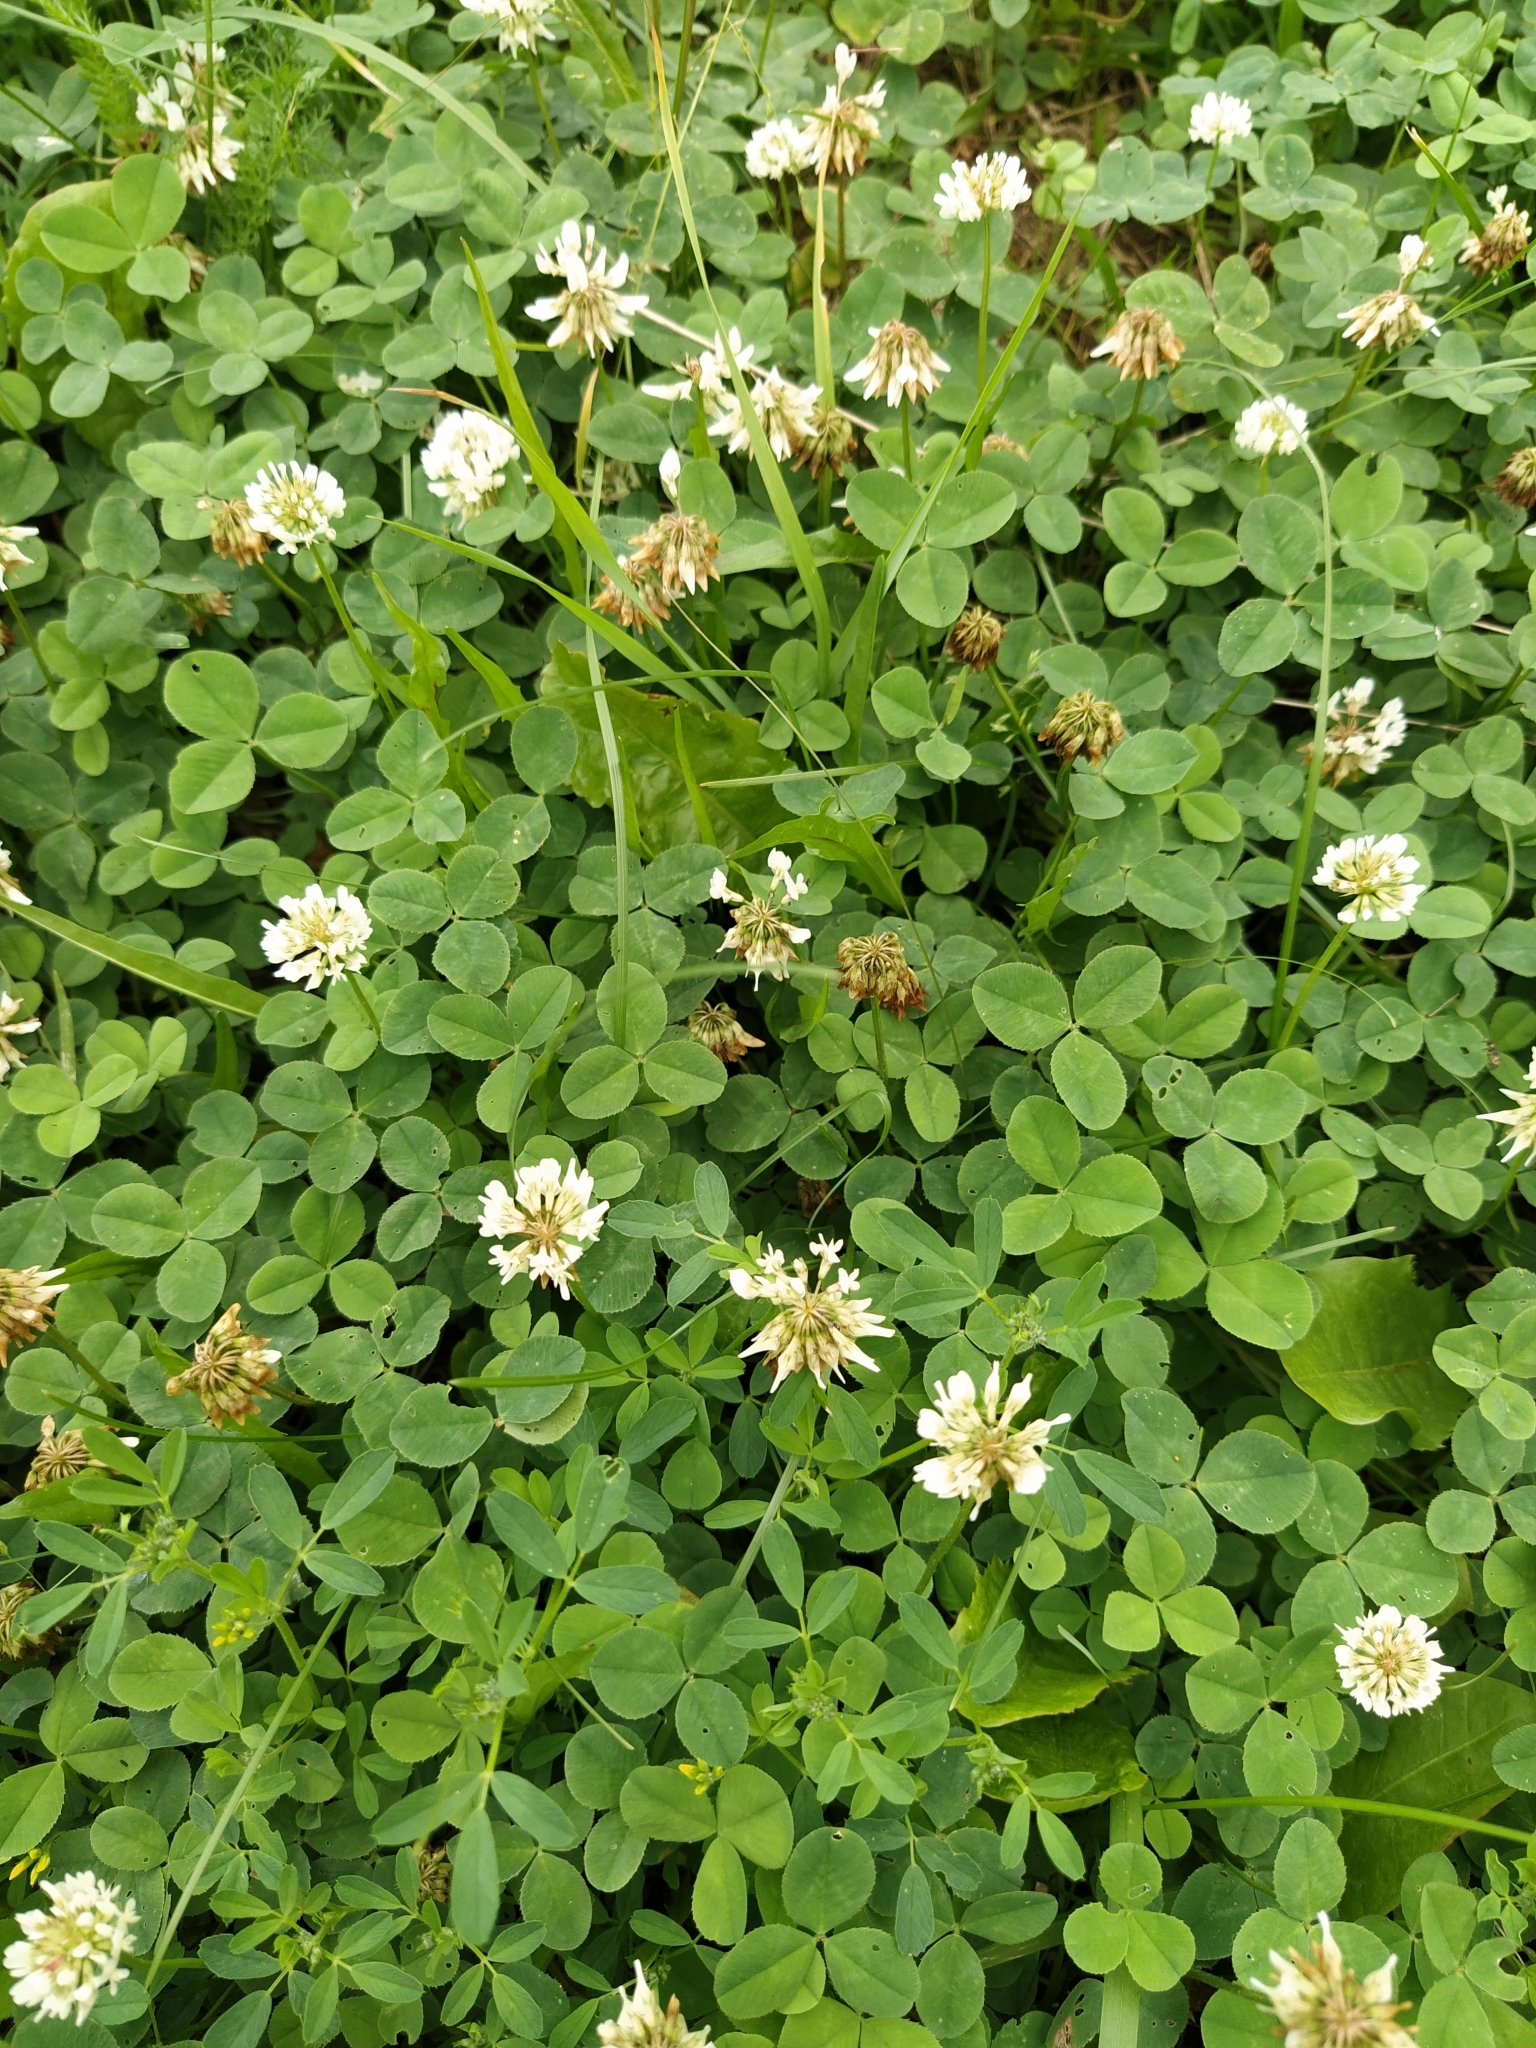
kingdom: Plantae
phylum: Tracheophyta
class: Magnoliopsida
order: Fabales
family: Fabaceae
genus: Trifolium
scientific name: Trifolium repens
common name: White clover
